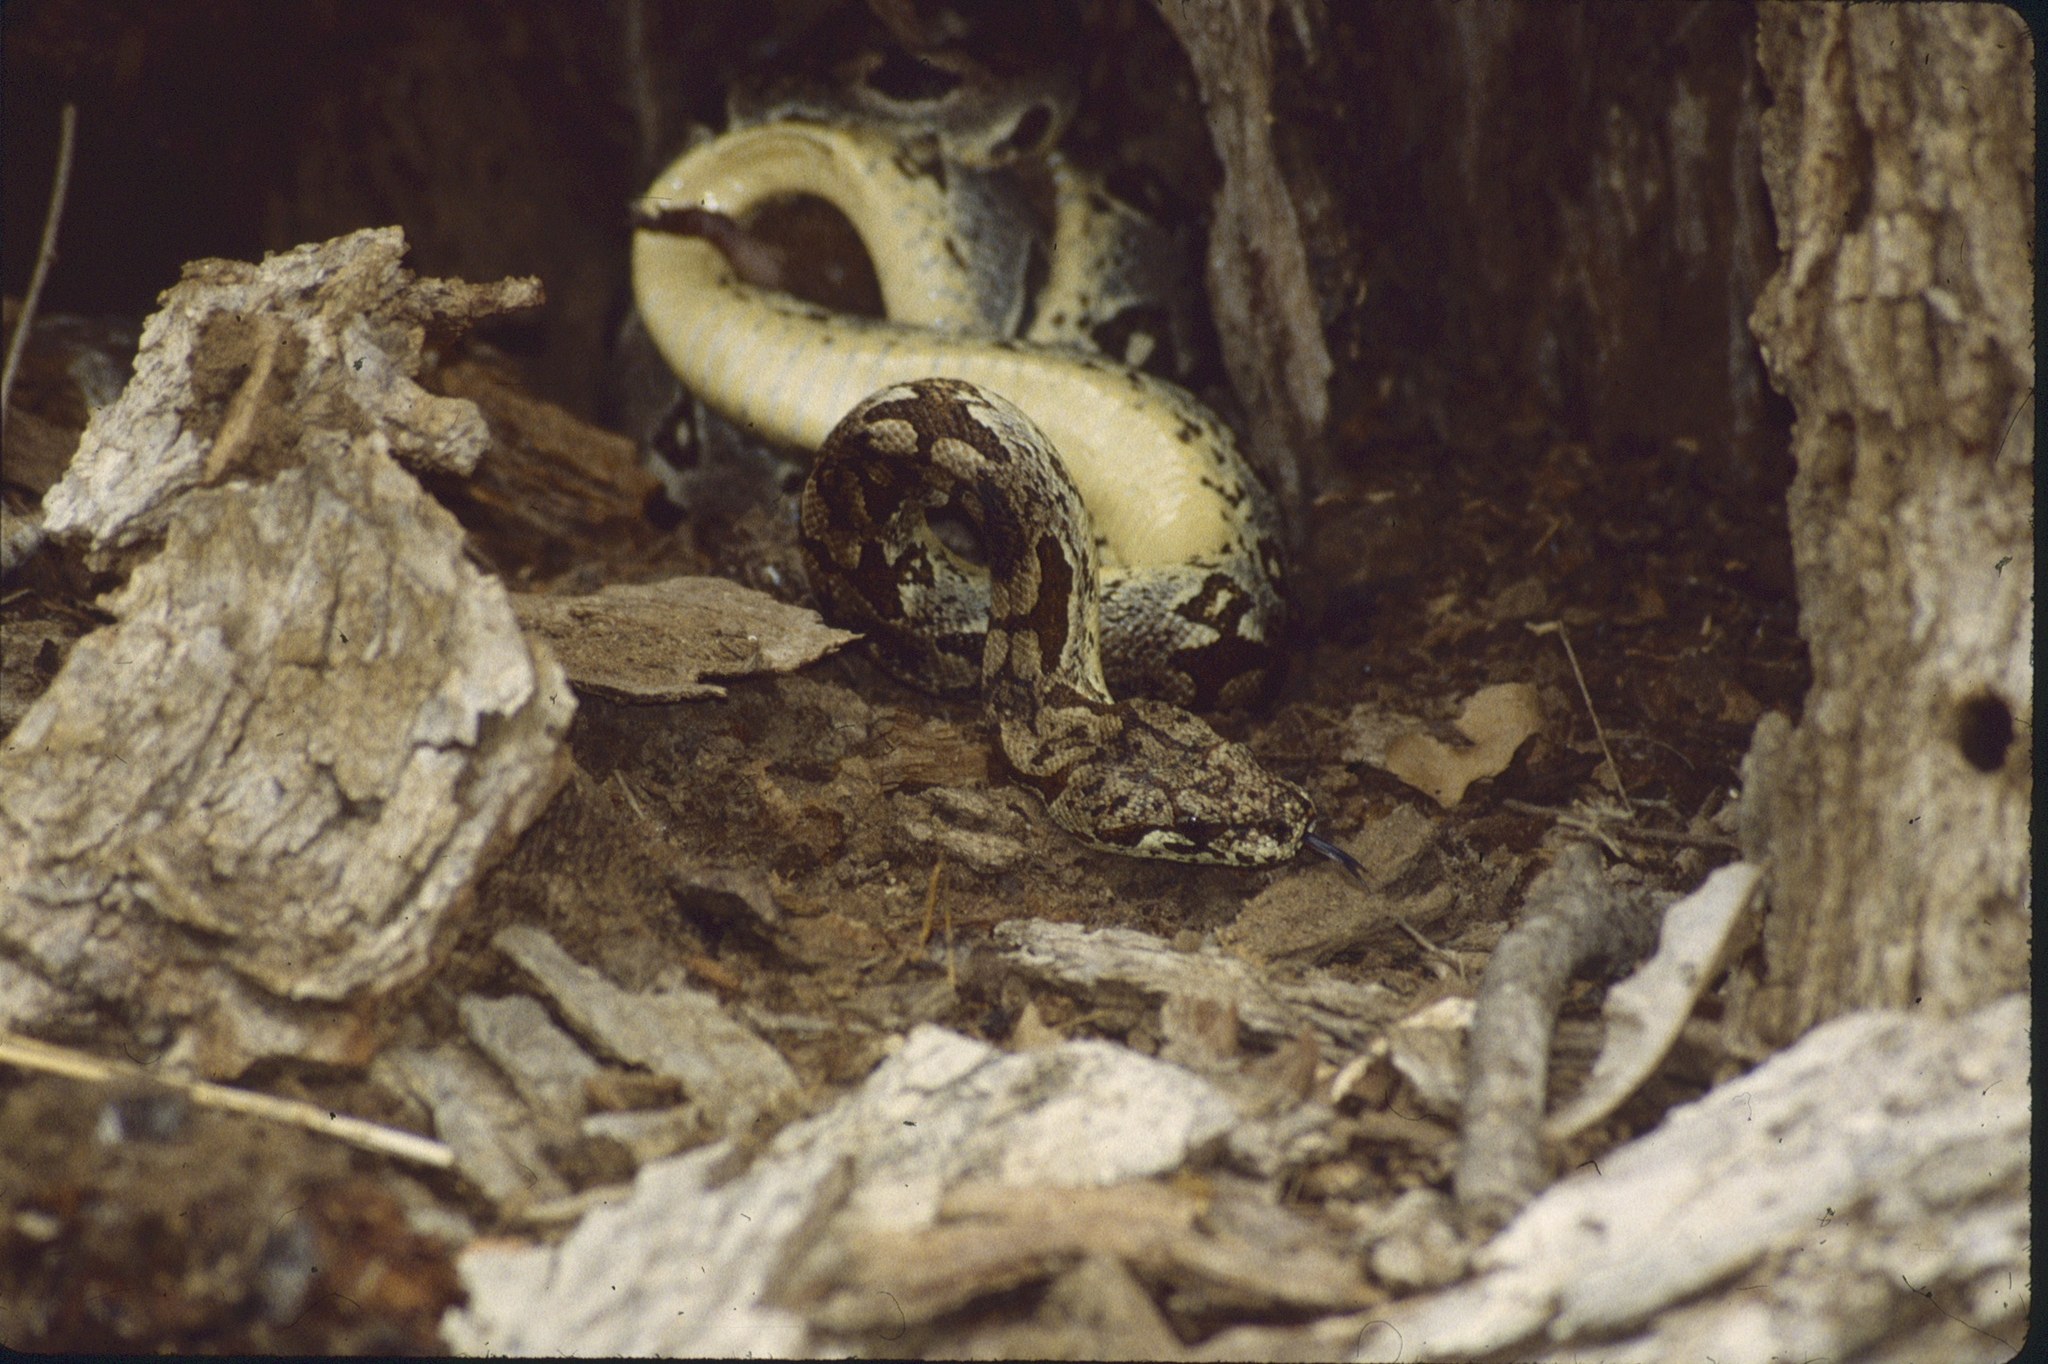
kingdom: Animalia
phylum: Chordata
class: Squamata
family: Boidae
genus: Acrantophis
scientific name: Acrantophis dumerili
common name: Dumeril's boa
